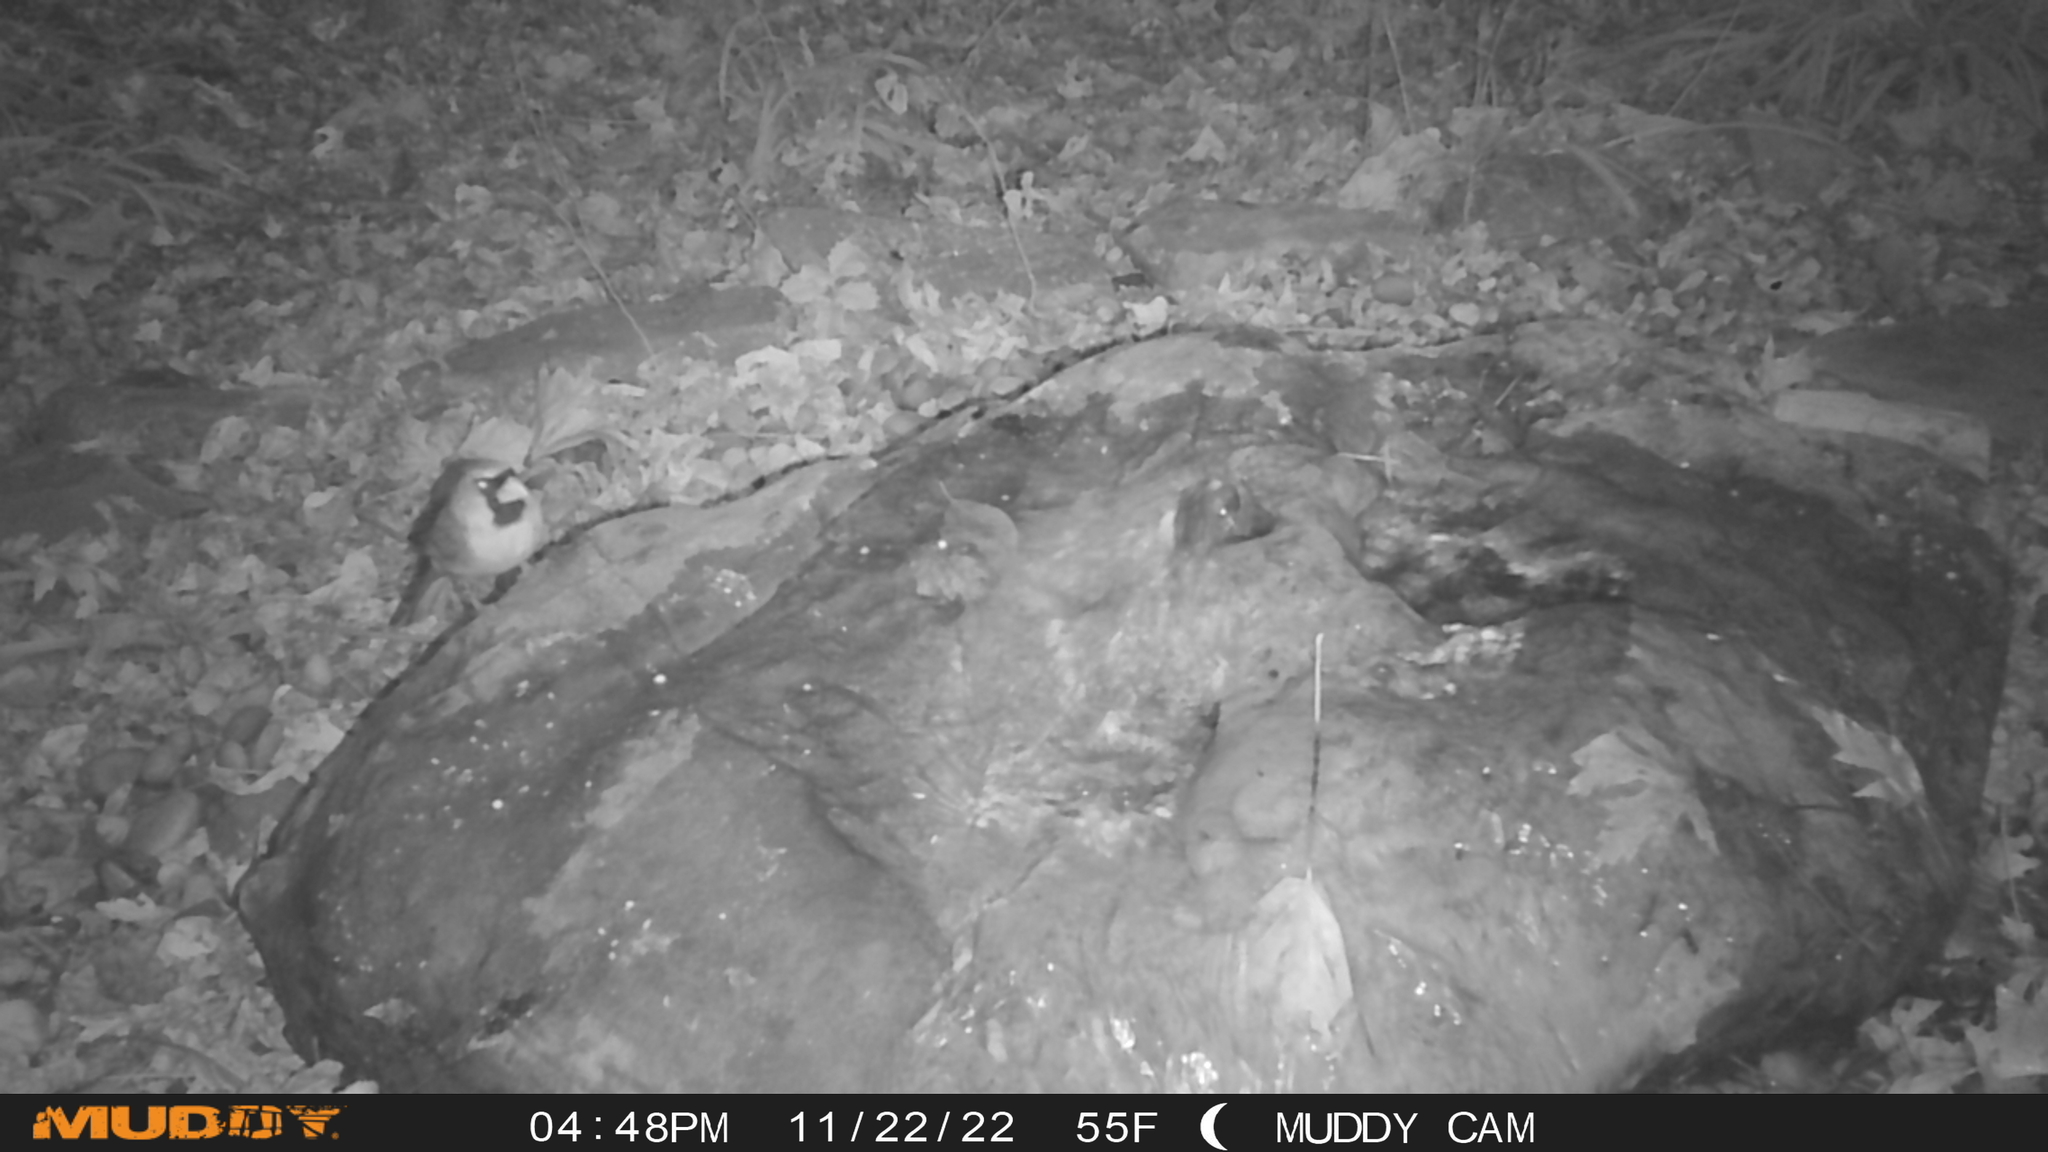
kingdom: Animalia
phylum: Chordata
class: Aves
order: Passeriformes
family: Cardinalidae
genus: Cardinalis
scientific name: Cardinalis cardinalis
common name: Northern cardinal
